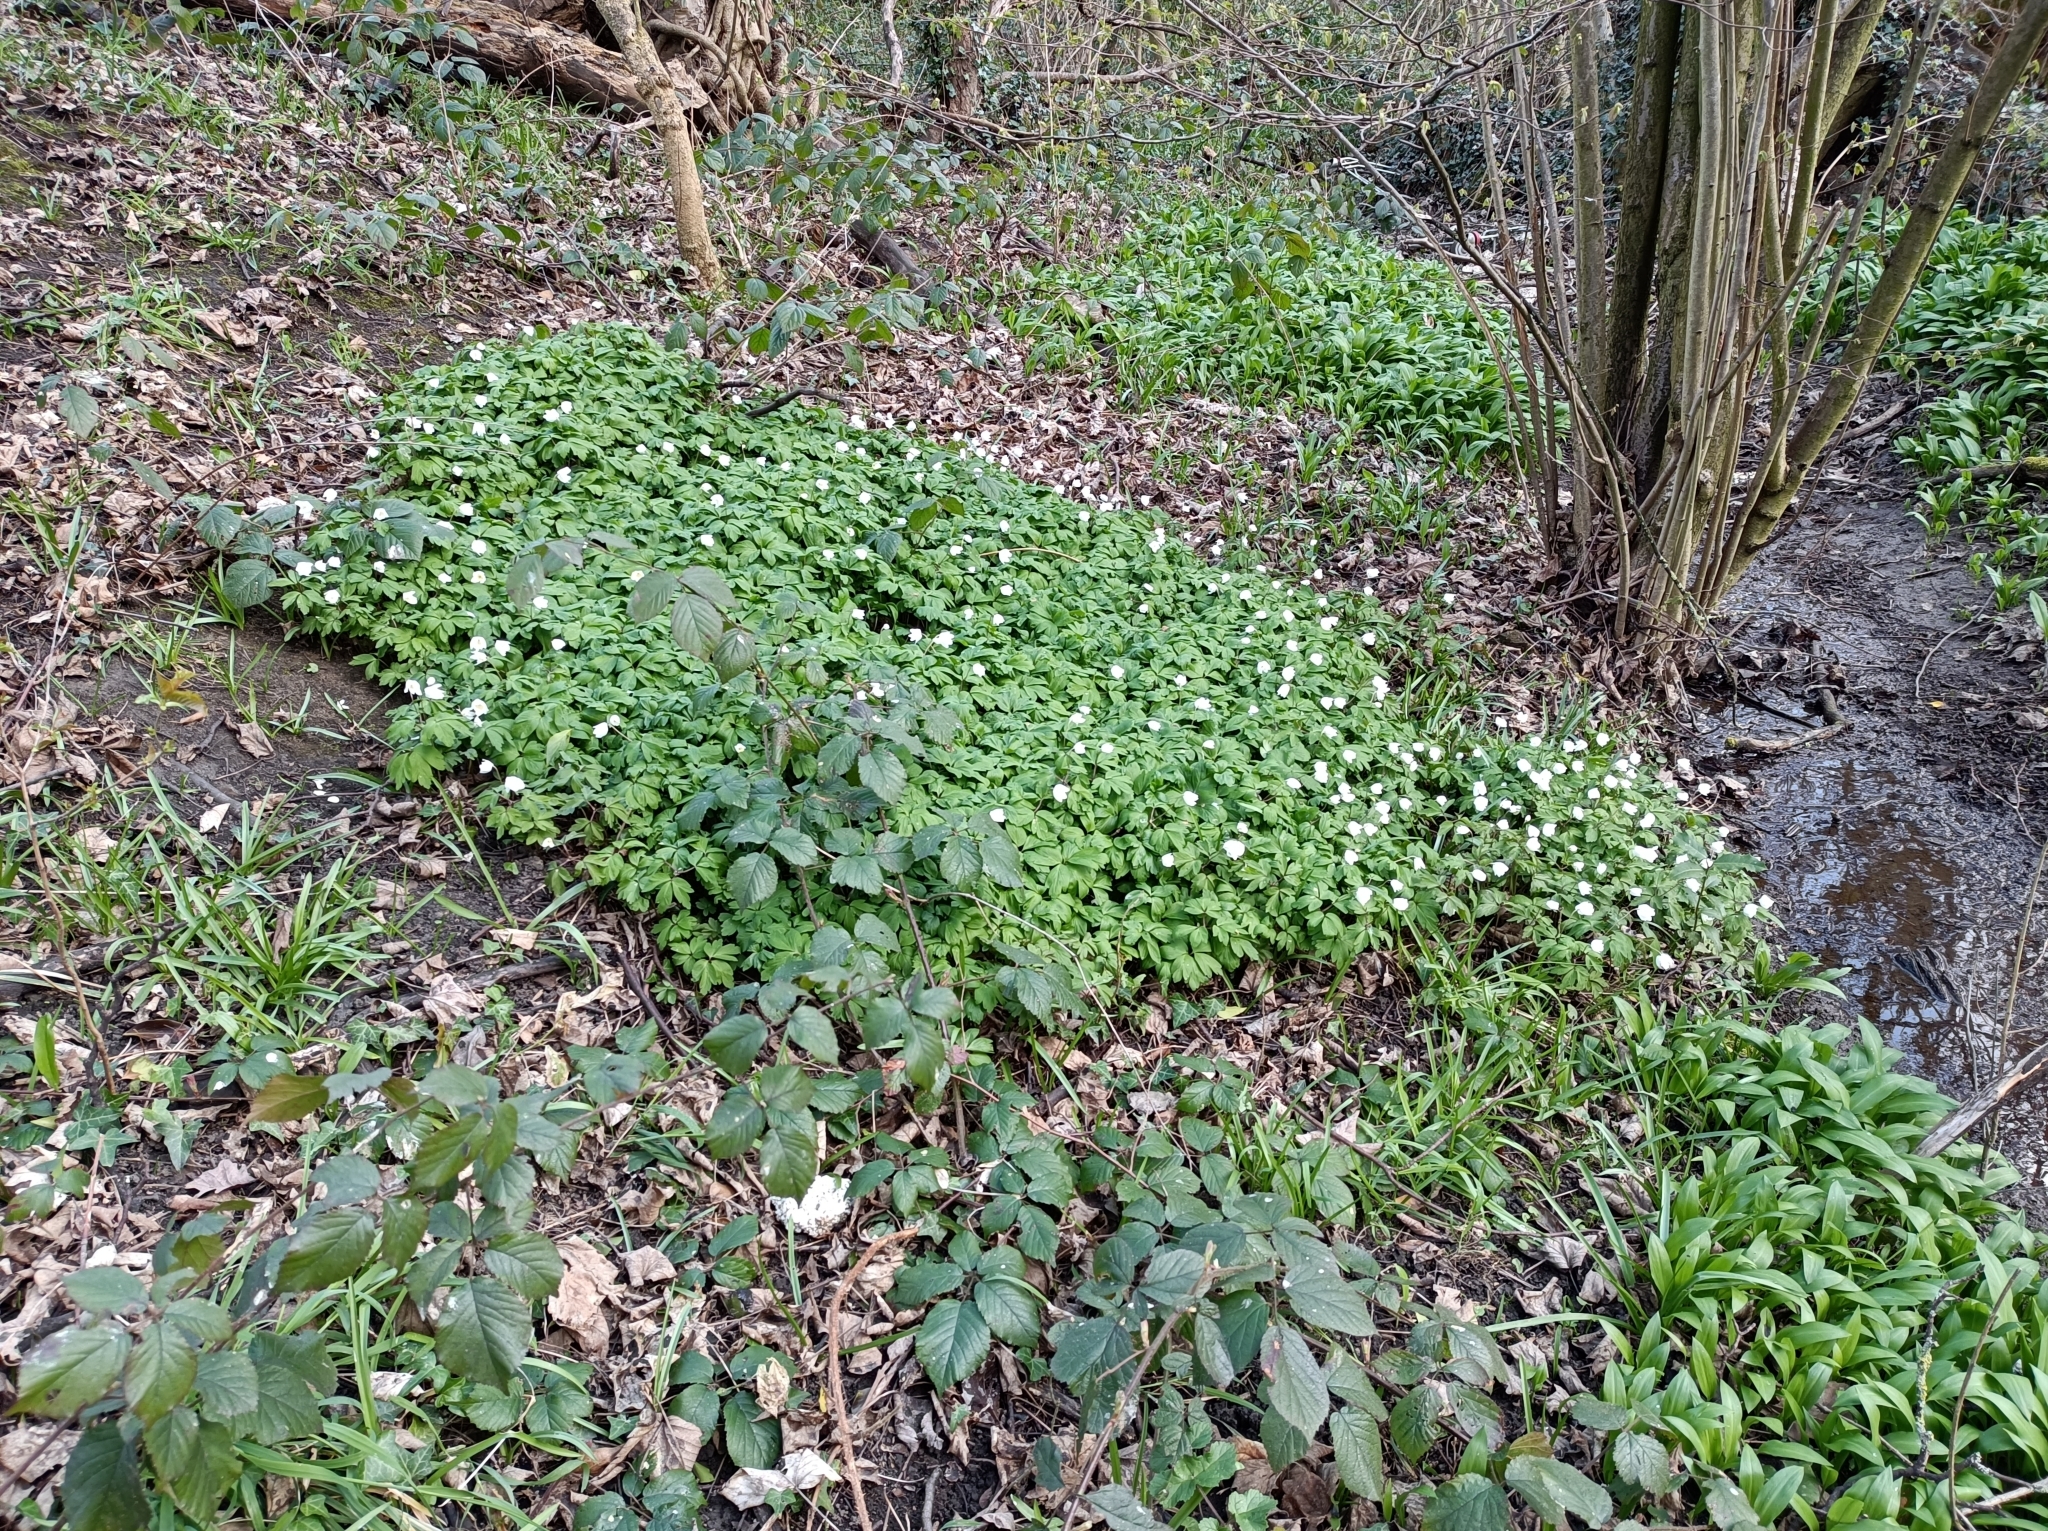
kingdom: Plantae
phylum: Tracheophyta
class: Magnoliopsida
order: Ranunculales
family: Ranunculaceae
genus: Anemone
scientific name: Anemone nemorosa
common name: Wood anemone
